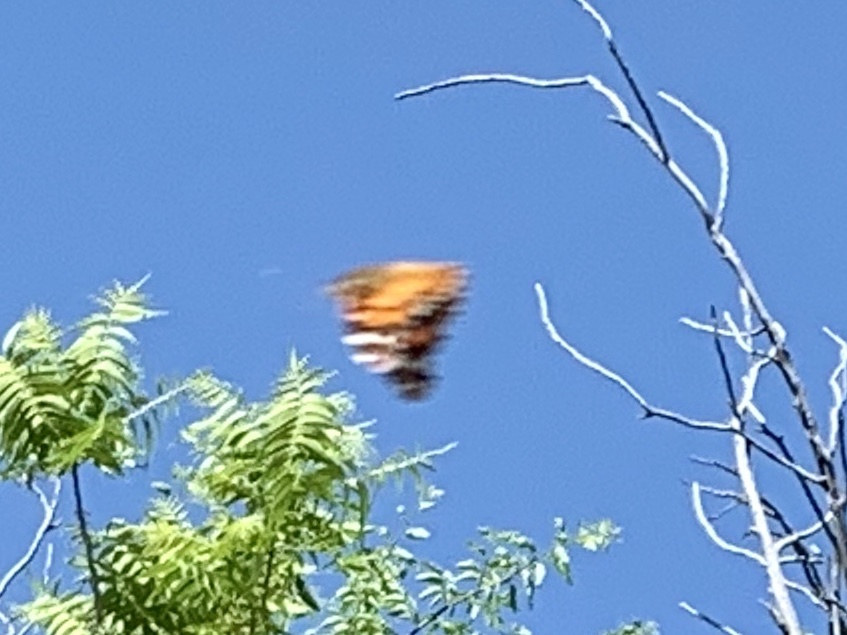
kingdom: Animalia
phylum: Arthropoda
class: Insecta
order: Lepidoptera
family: Nymphalidae
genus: Vanessa
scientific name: Vanessa cardui
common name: Painted lady
